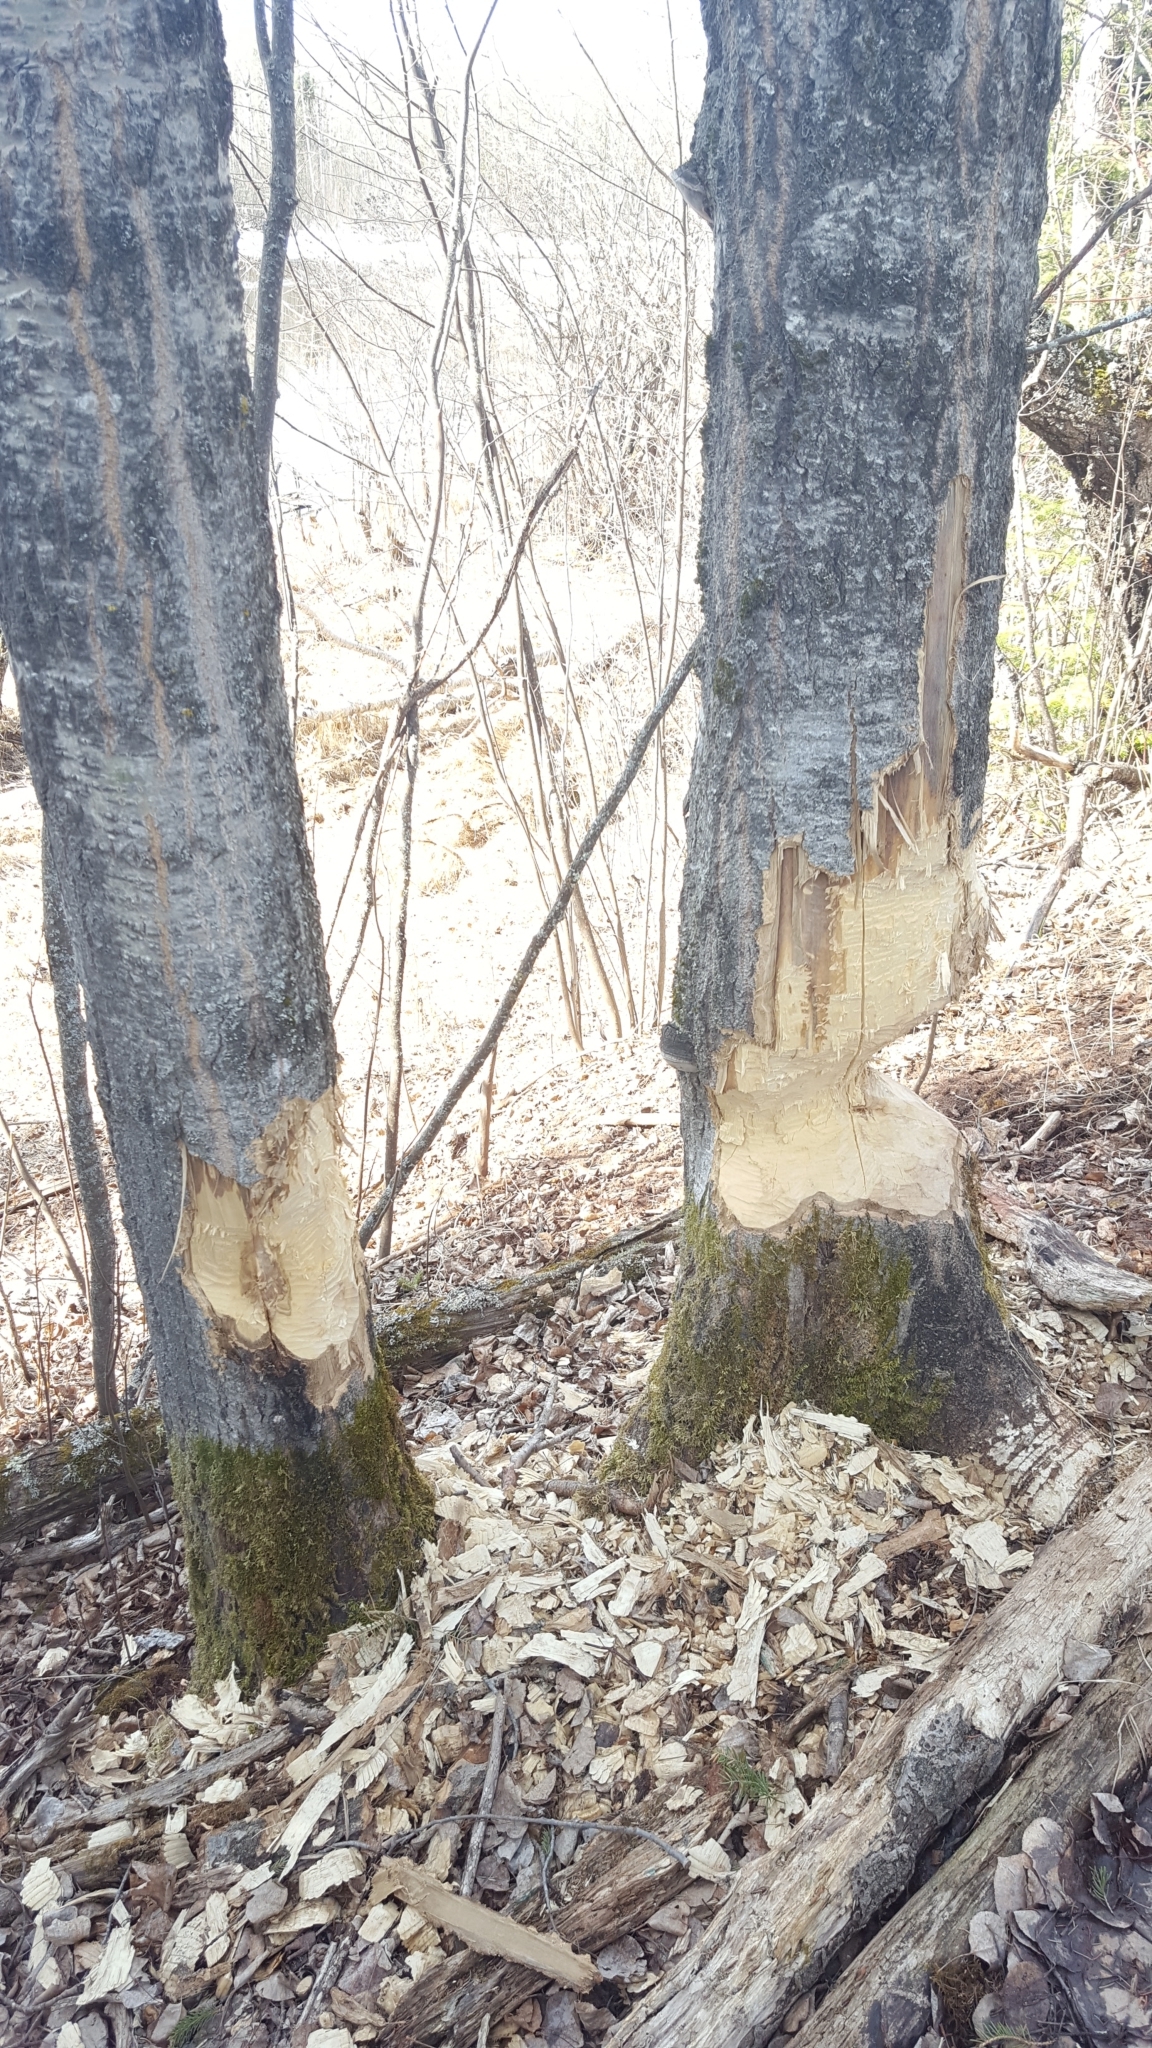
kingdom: Animalia
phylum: Chordata
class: Mammalia
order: Rodentia
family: Castoridae
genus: Castor
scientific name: Castor canadensis
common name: American beaver
